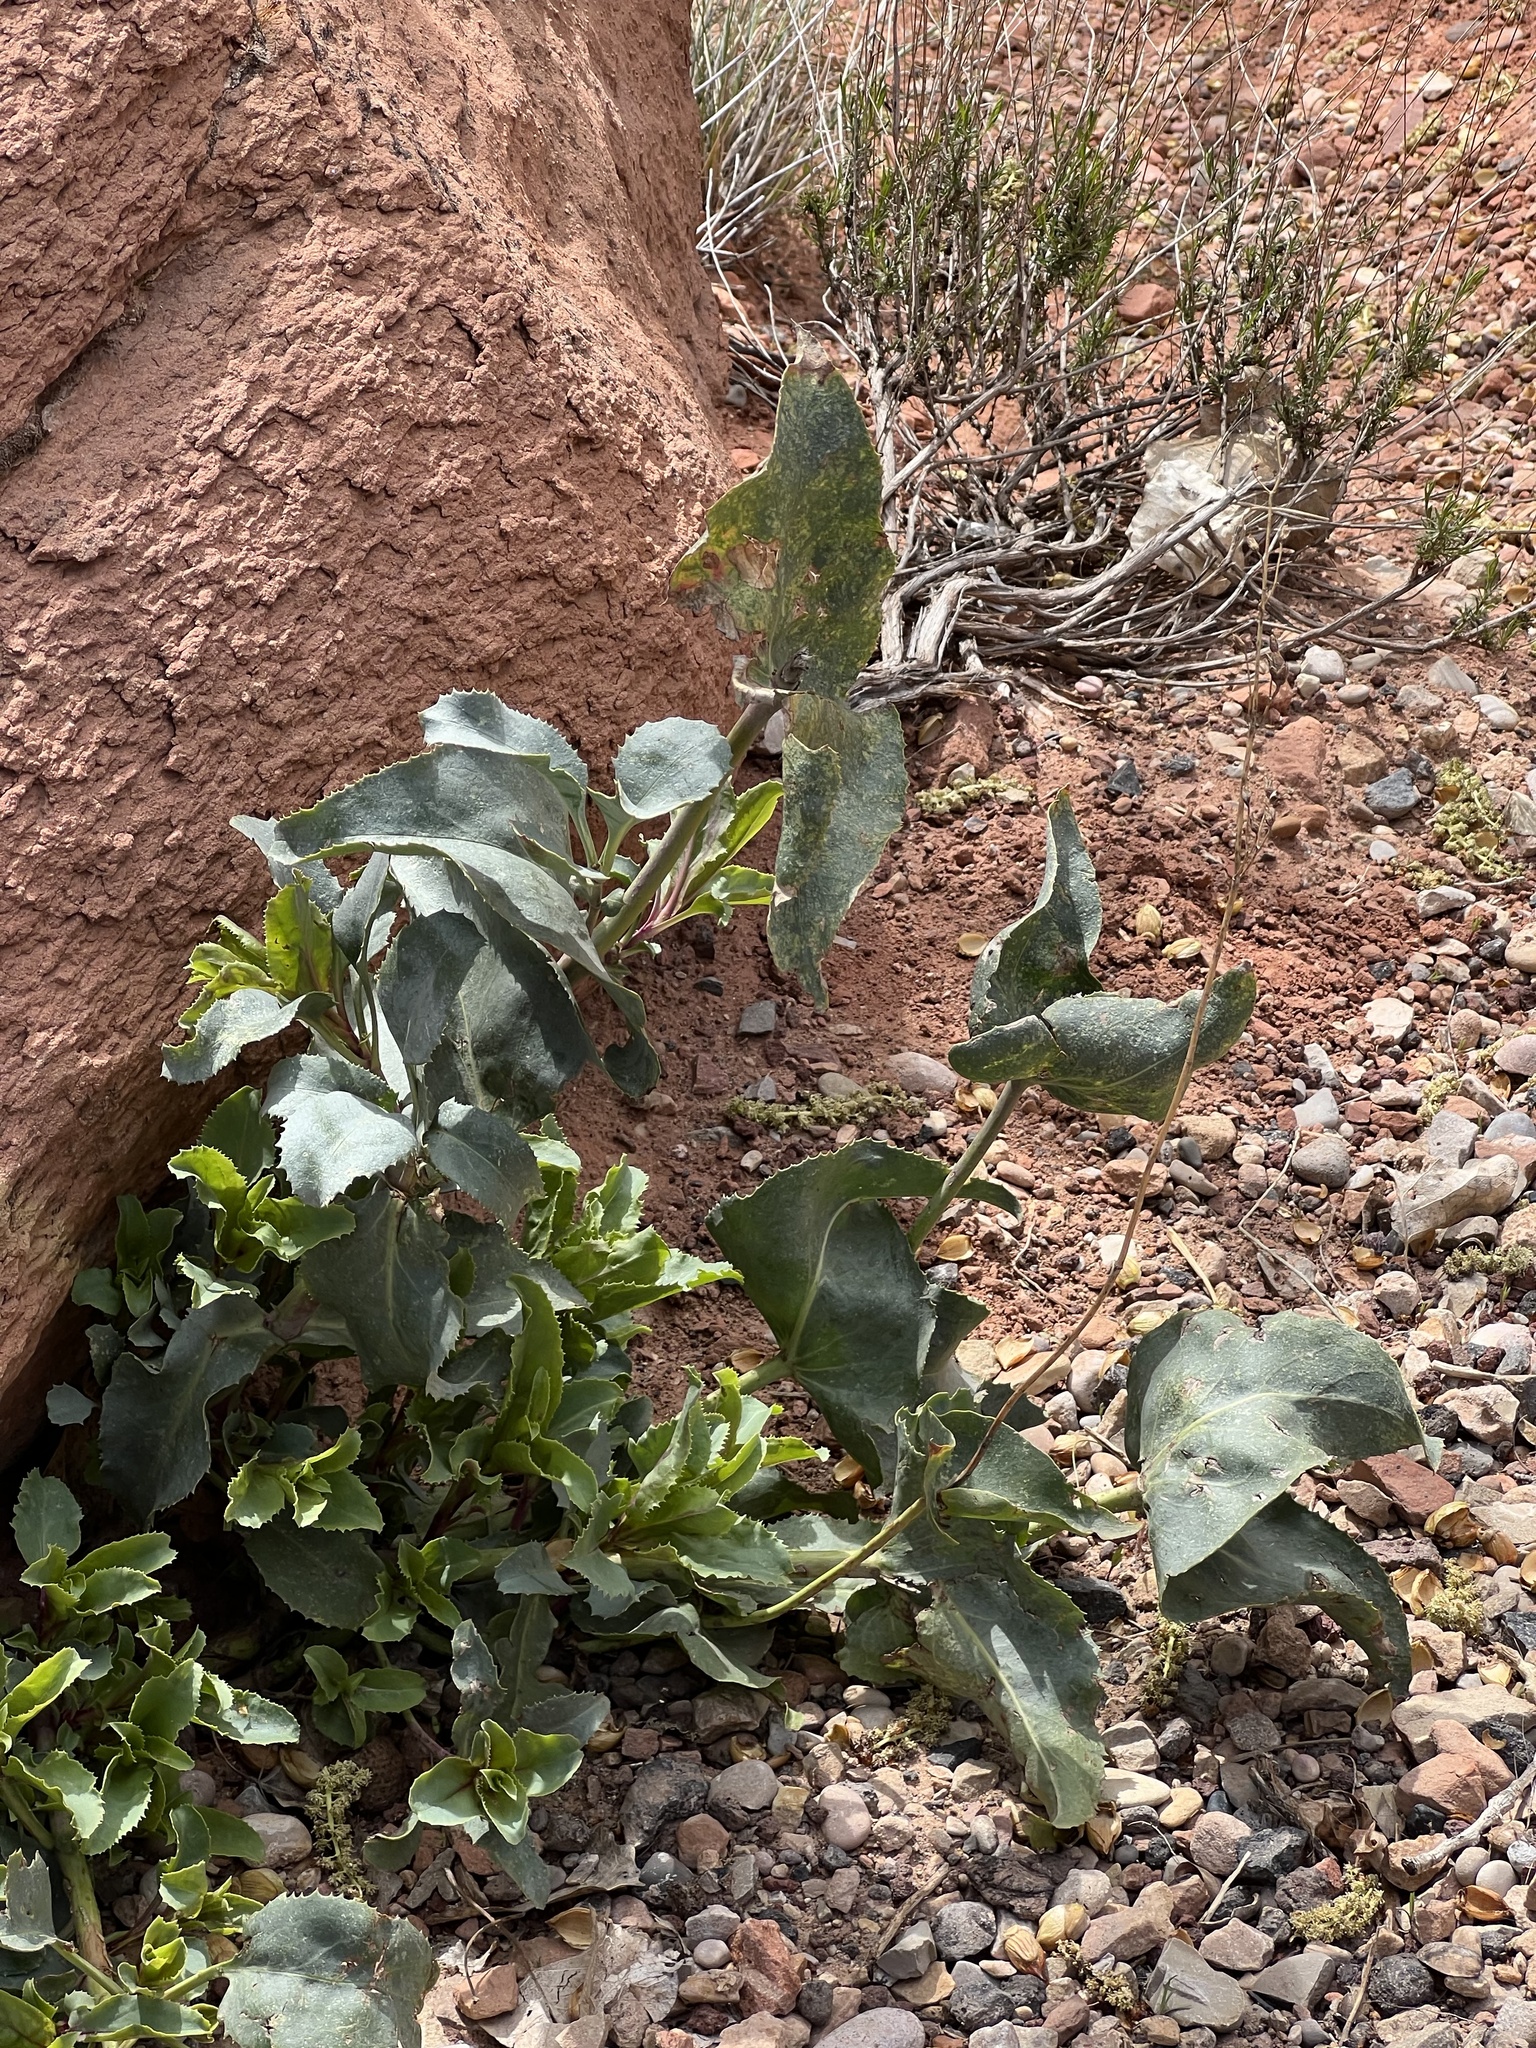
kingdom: Plantae
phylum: Tracheophyta
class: Magnoliopsida
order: Lamiales
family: Plantaginaceae
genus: Penstemon
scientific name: Penstemon palmeri
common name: Palmer penstemon
